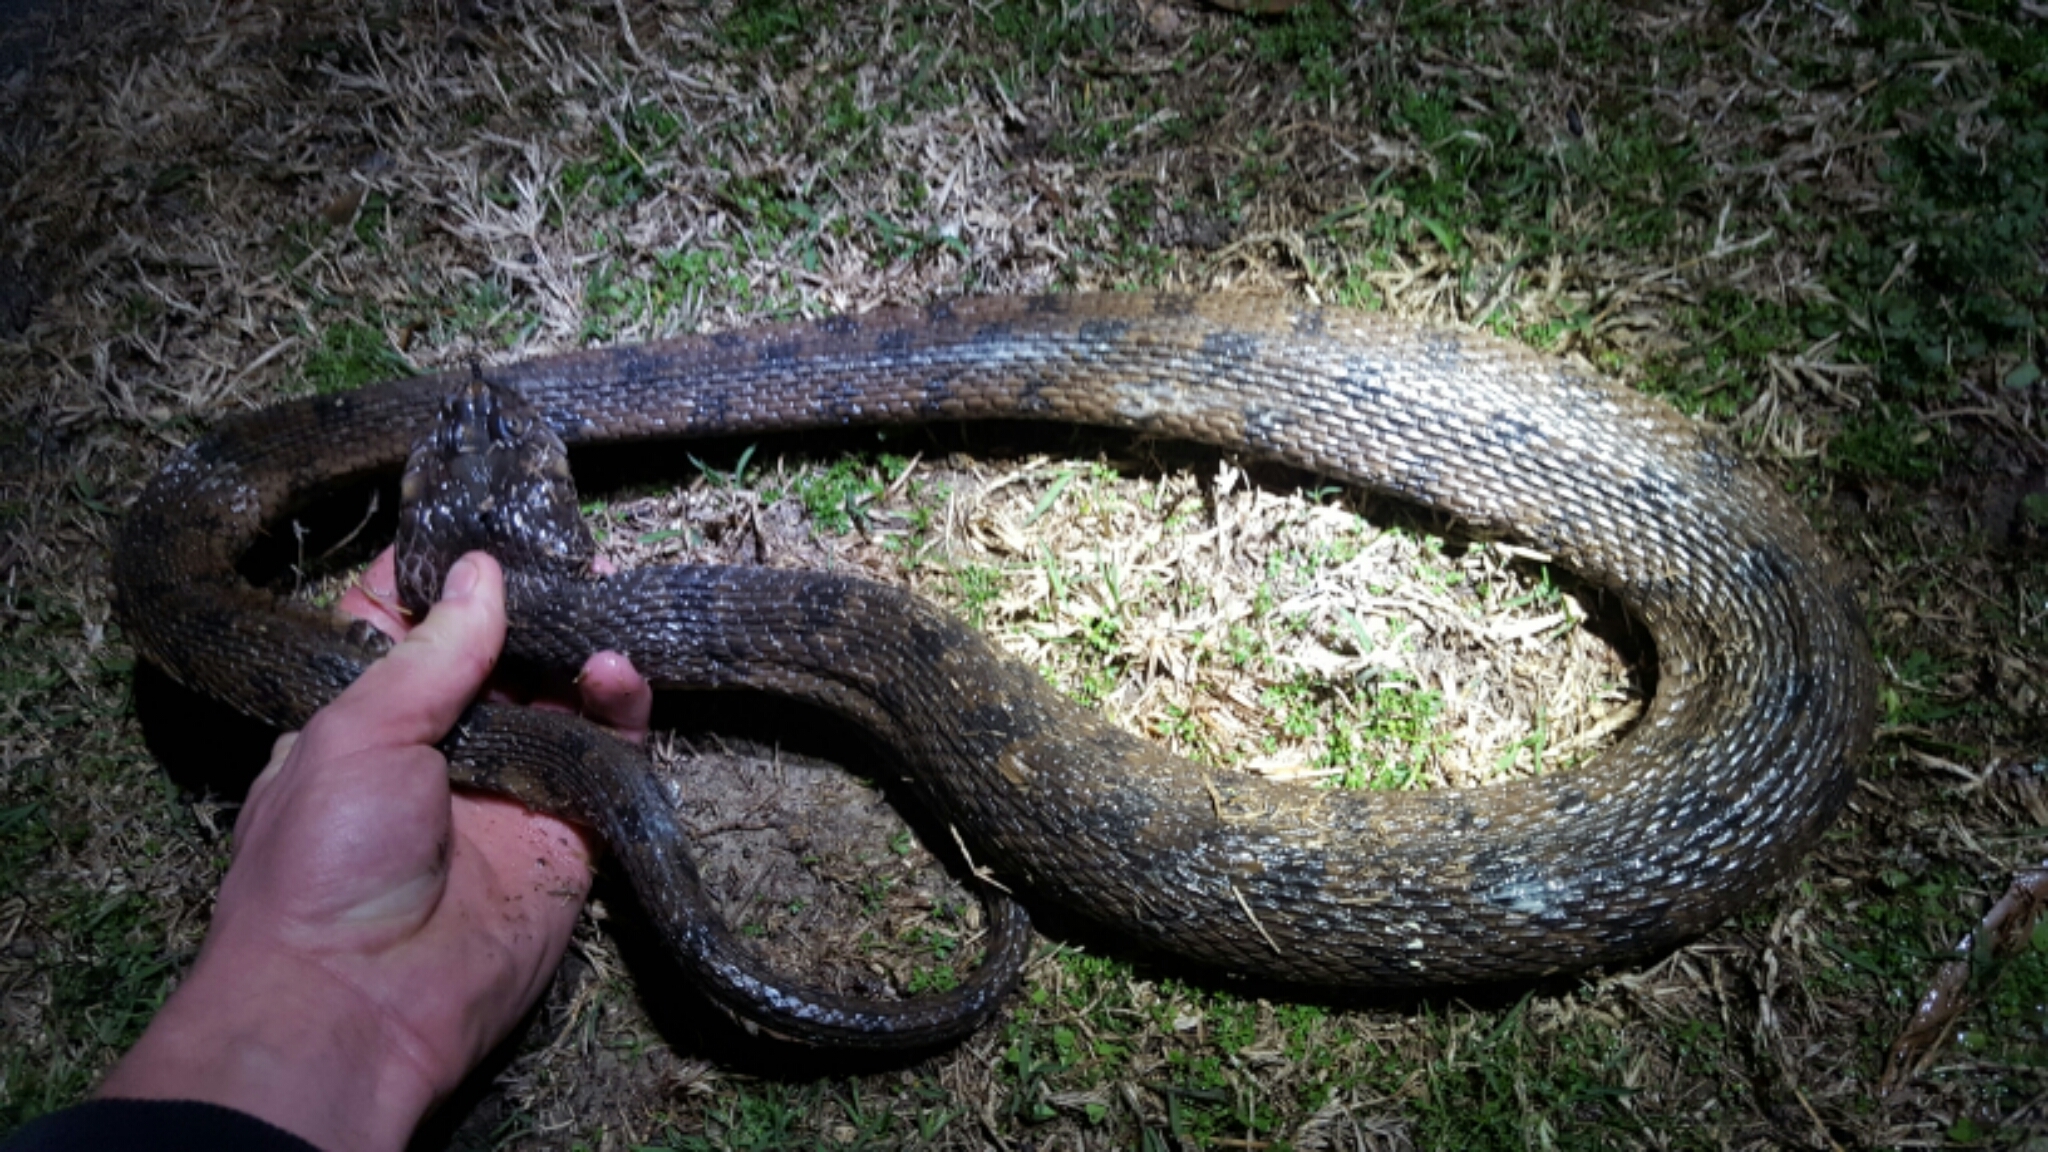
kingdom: Animalia
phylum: Chordata
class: Squamata
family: Colubridae
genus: Nerodia
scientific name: Nerodia rhombifer
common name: Diamondback water snake
